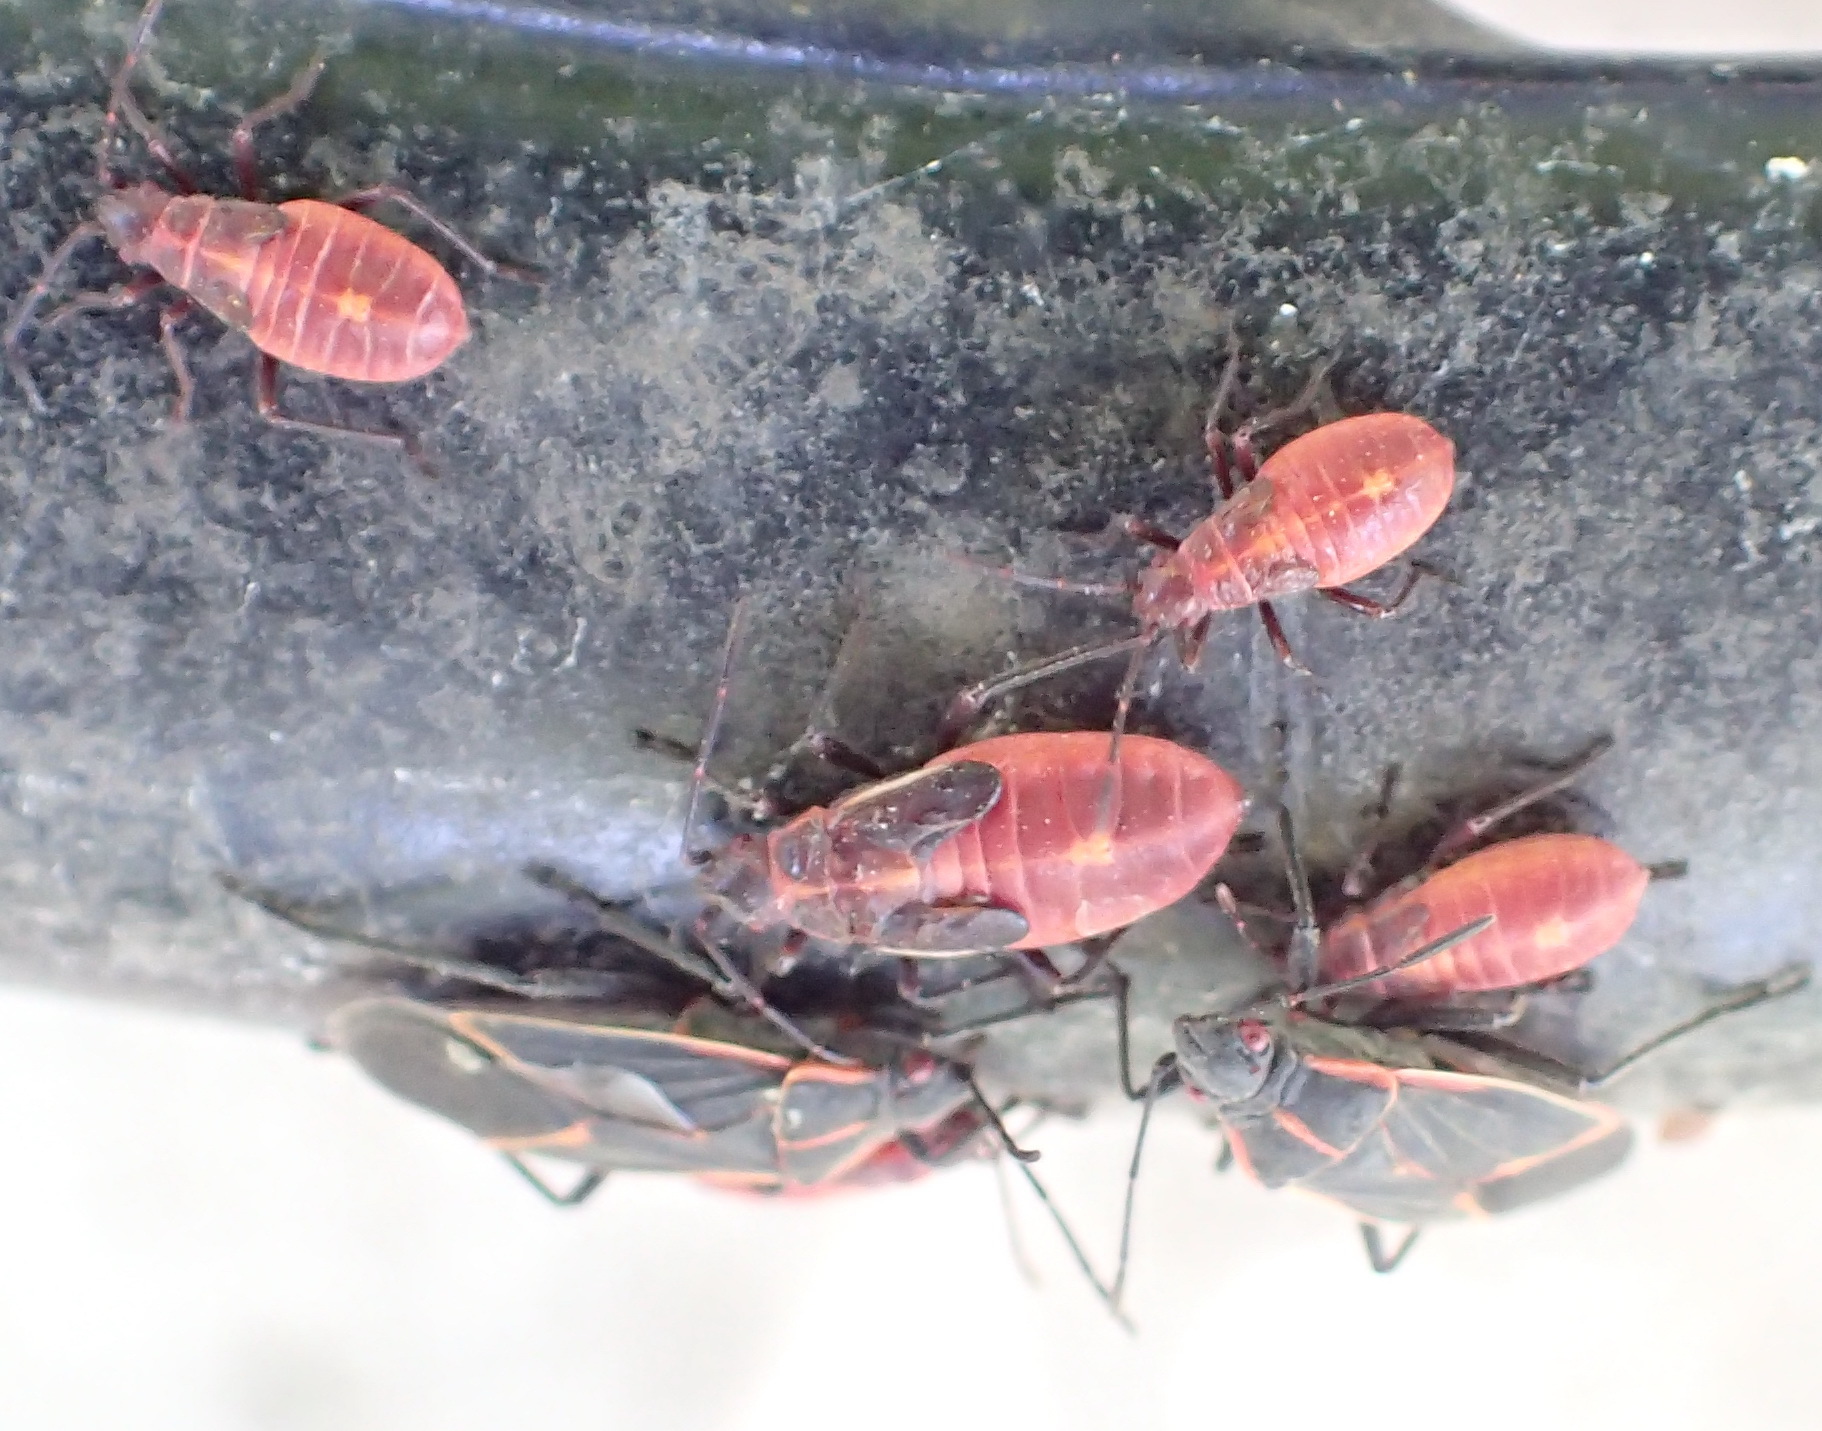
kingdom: Animalia
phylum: Arthropoda
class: Insecta
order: Hemiptera
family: Rhopalidae
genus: Boisea
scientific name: Boisea trivittata
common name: Boxelder bug
